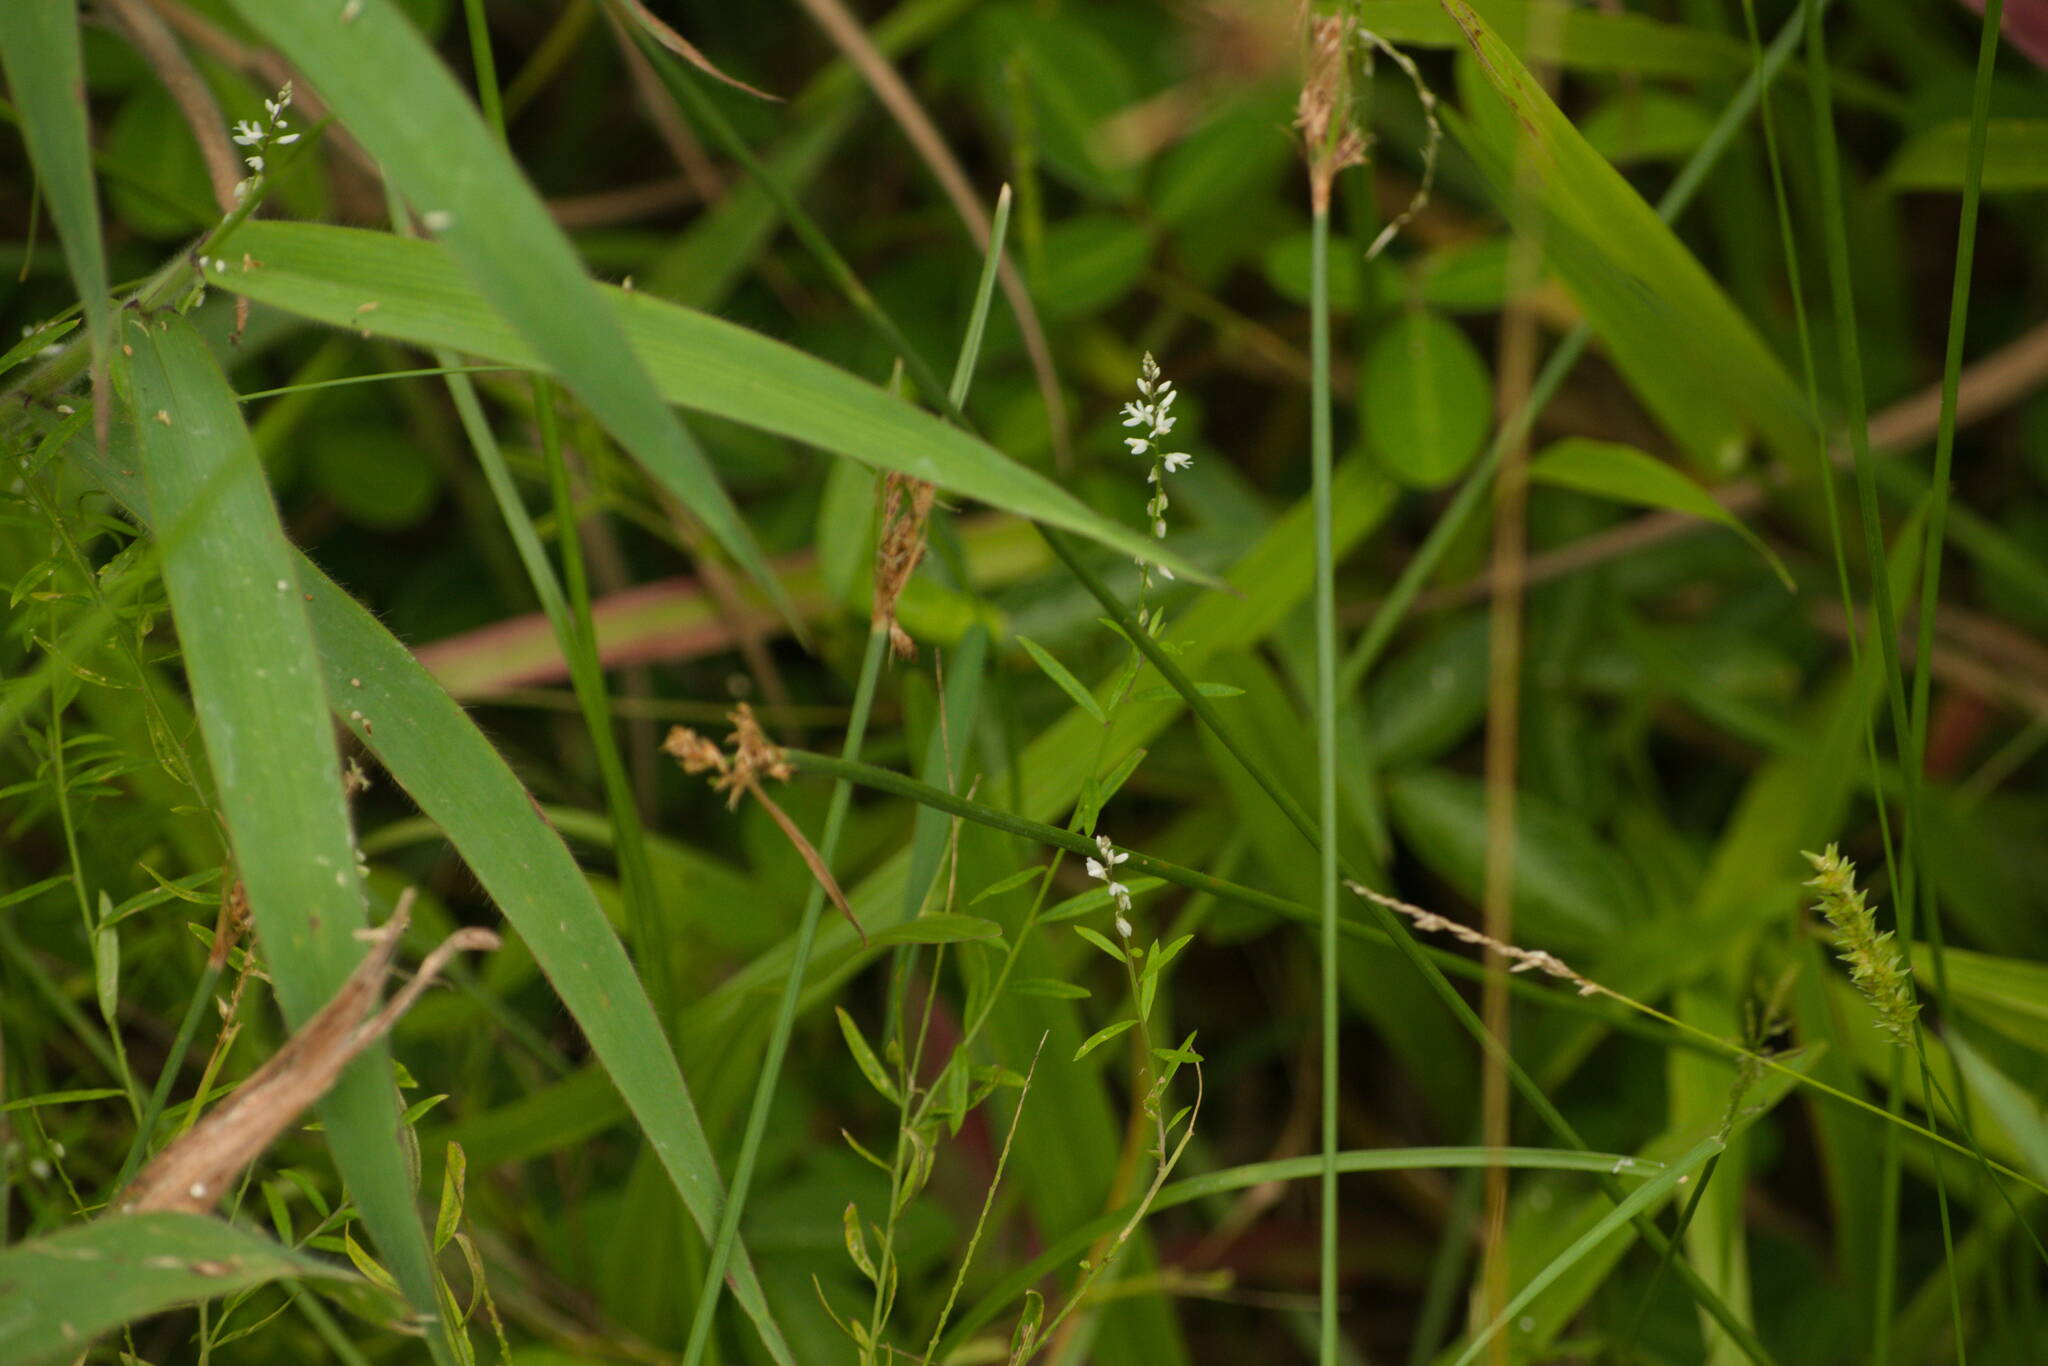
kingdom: Plantae
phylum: Tracheophyta
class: Magnoliopsida
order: Fabales
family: Polygalaceae
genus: Polygala
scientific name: Polygala paniculata
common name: Orosne
